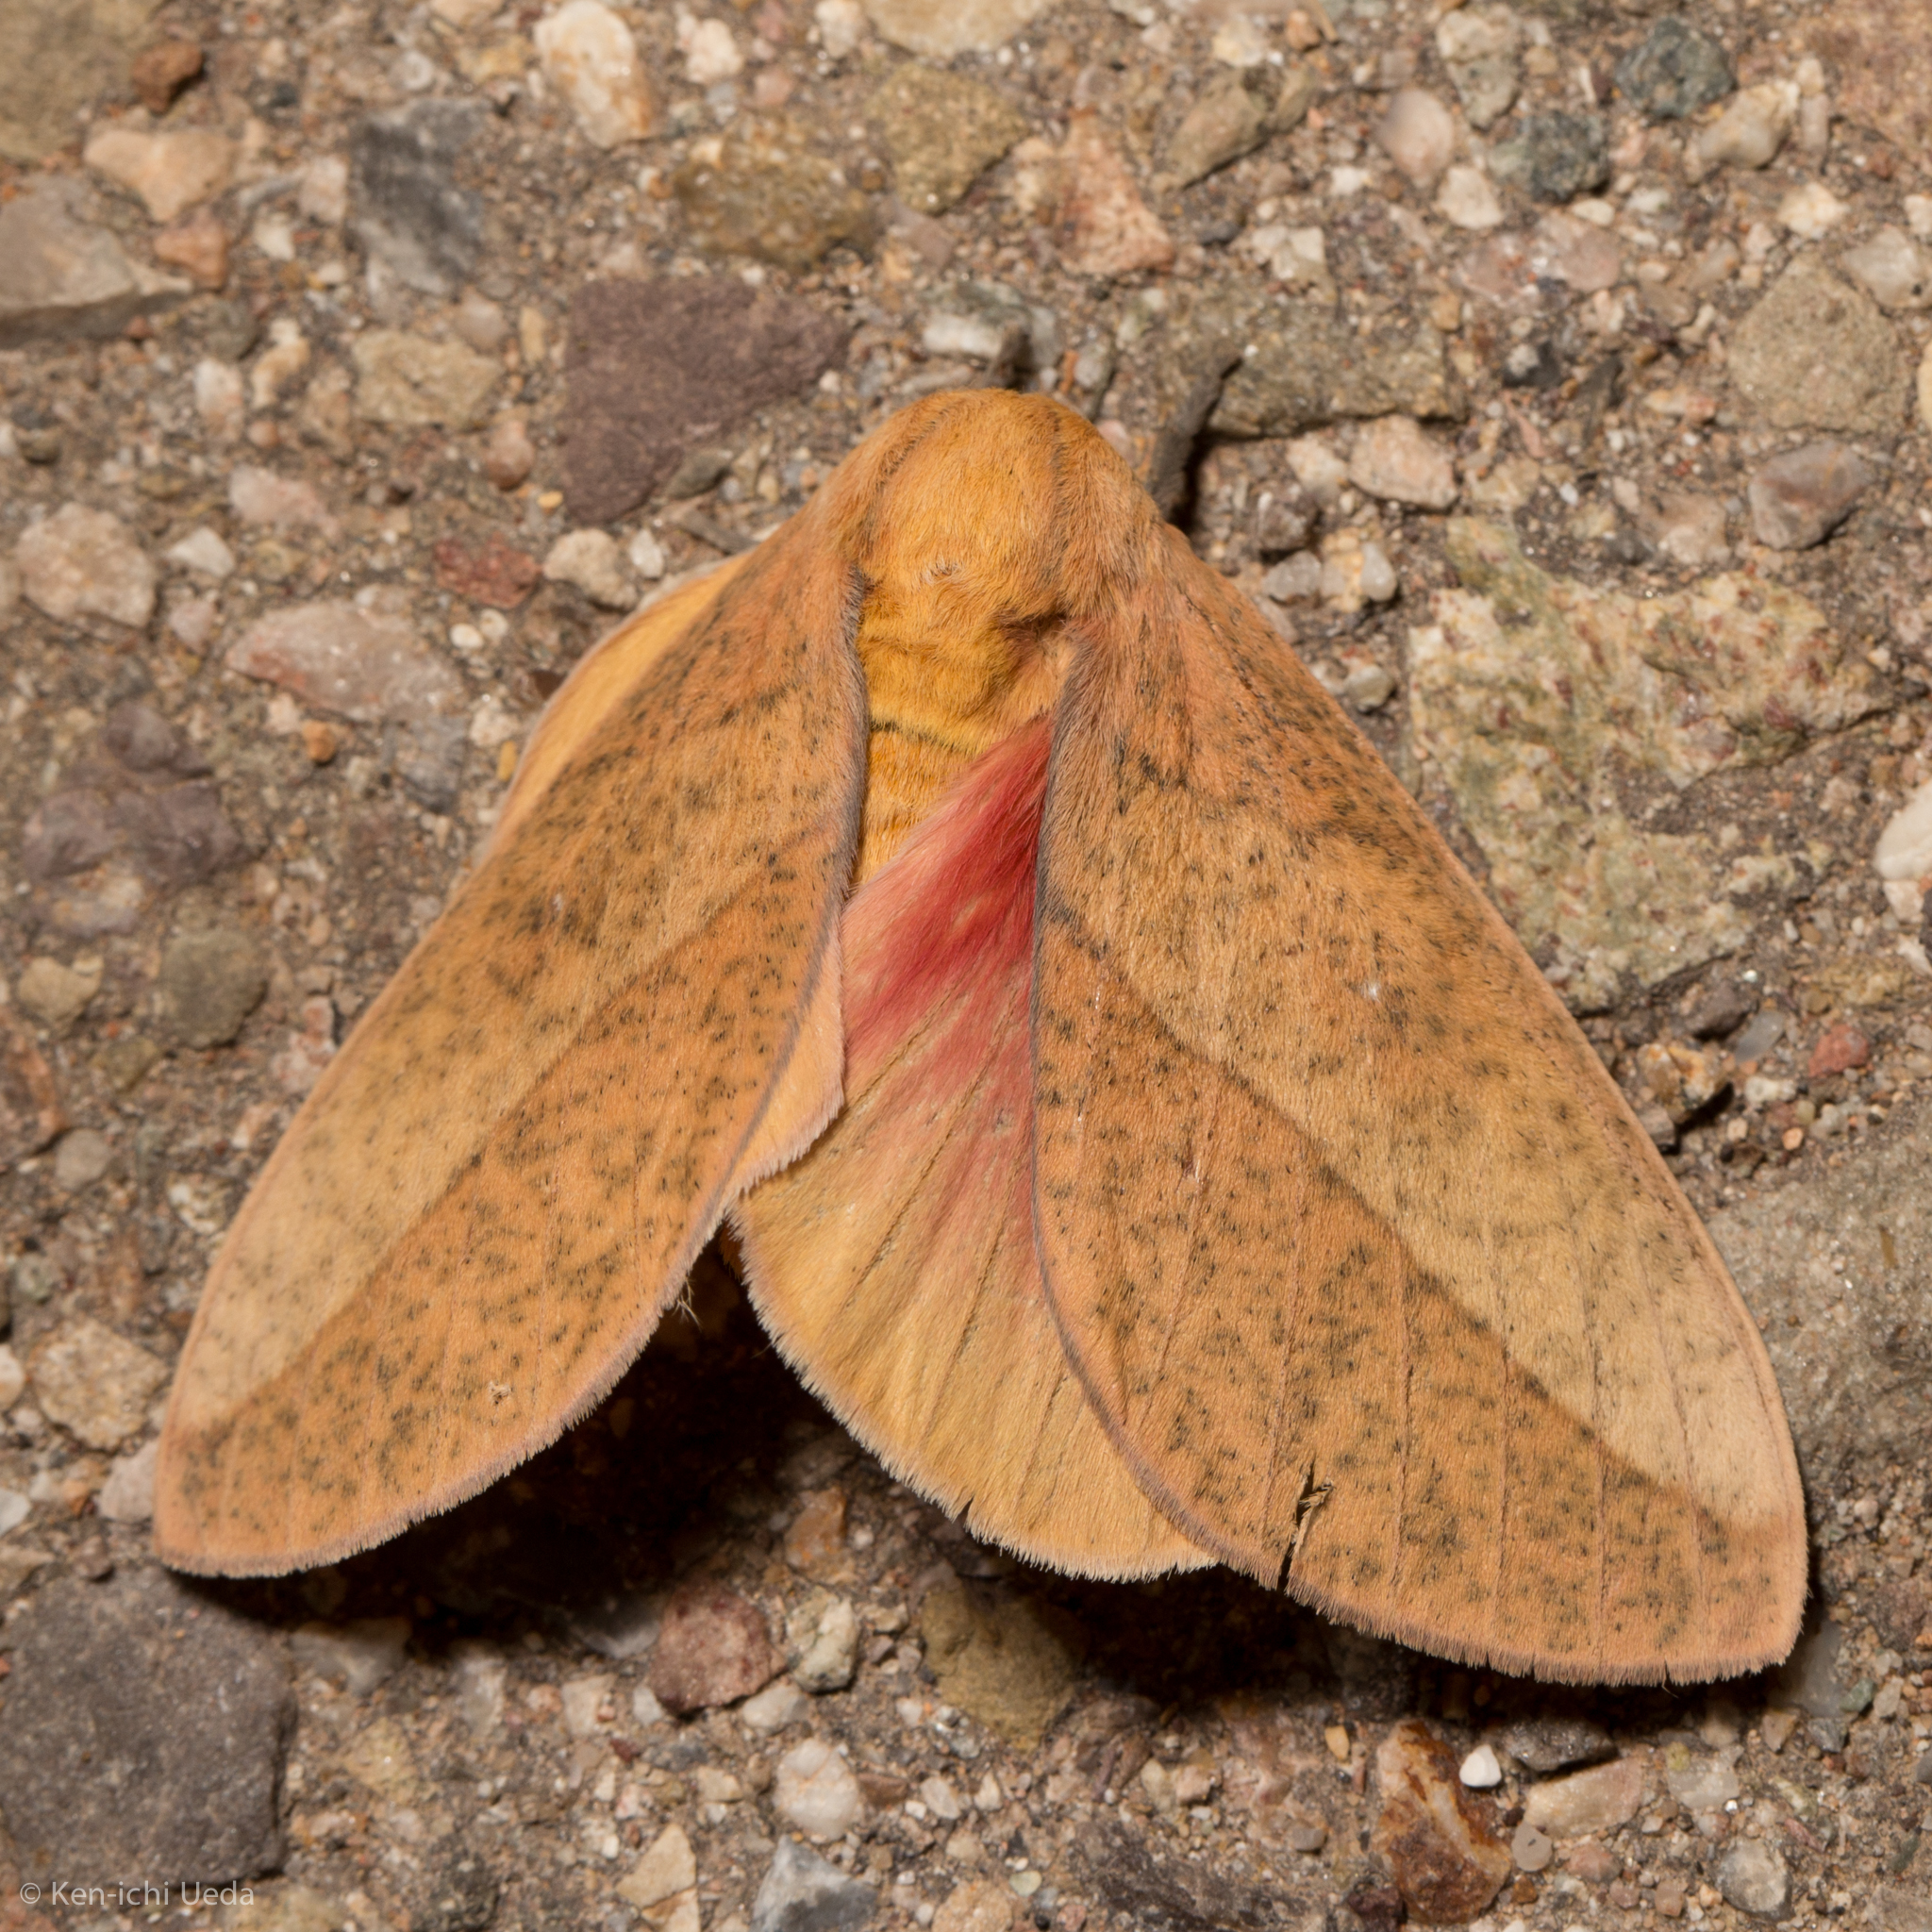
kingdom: Animalia
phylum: Arthropoda
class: Insecta
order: Lepidoptera
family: Saturniidae
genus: Syssphinx
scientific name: Syssphinx montana
